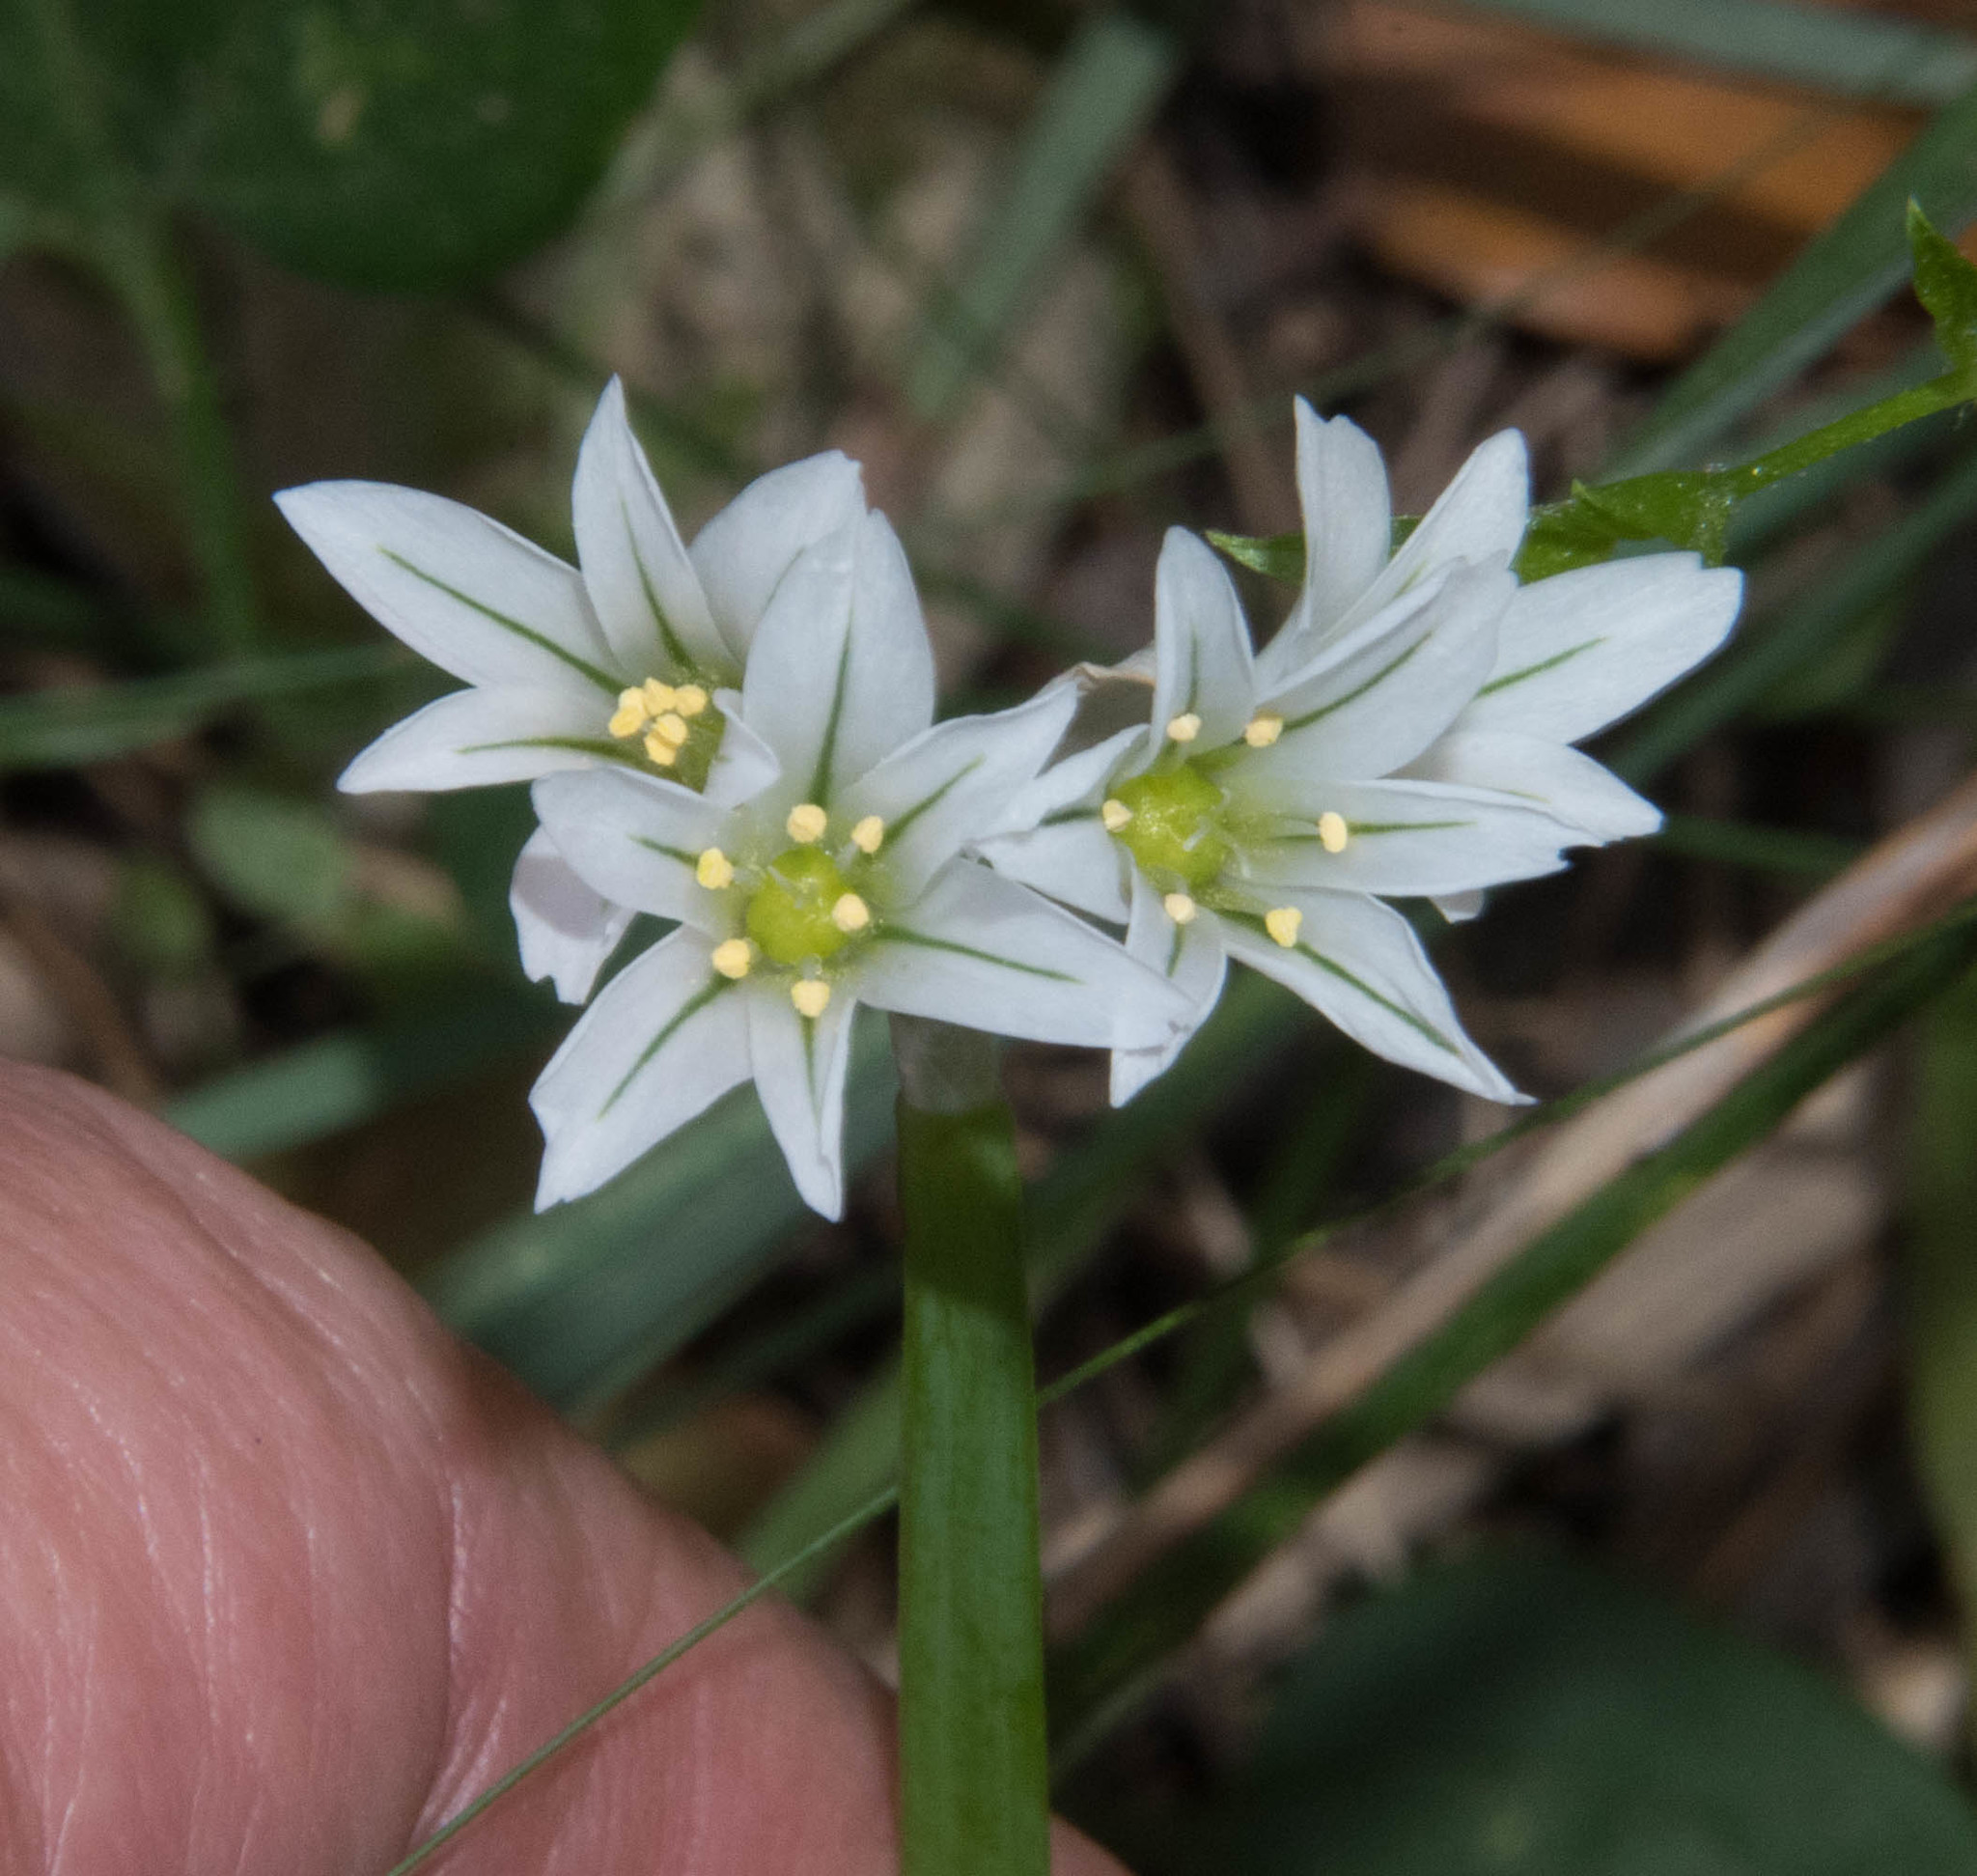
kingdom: Plantae
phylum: Tracheophyta
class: Liliopsida
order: Asparagales
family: Amaryllidaceae
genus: Allium
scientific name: Allium triquetrum
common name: Three-cornered garlic
